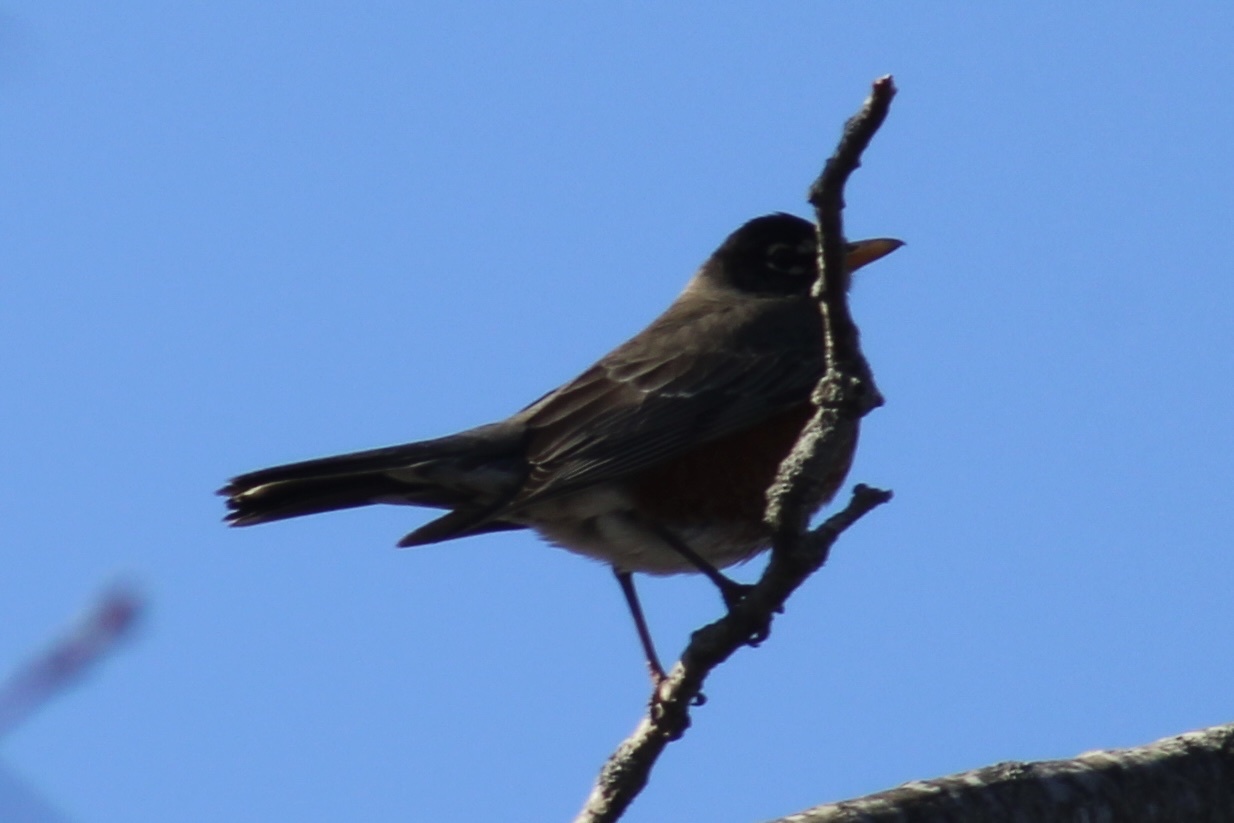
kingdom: Animalia
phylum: Chordata
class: Aves
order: Passeriformes
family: Turdidae
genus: Turdus
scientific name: Turdus migratorius
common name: American robin
